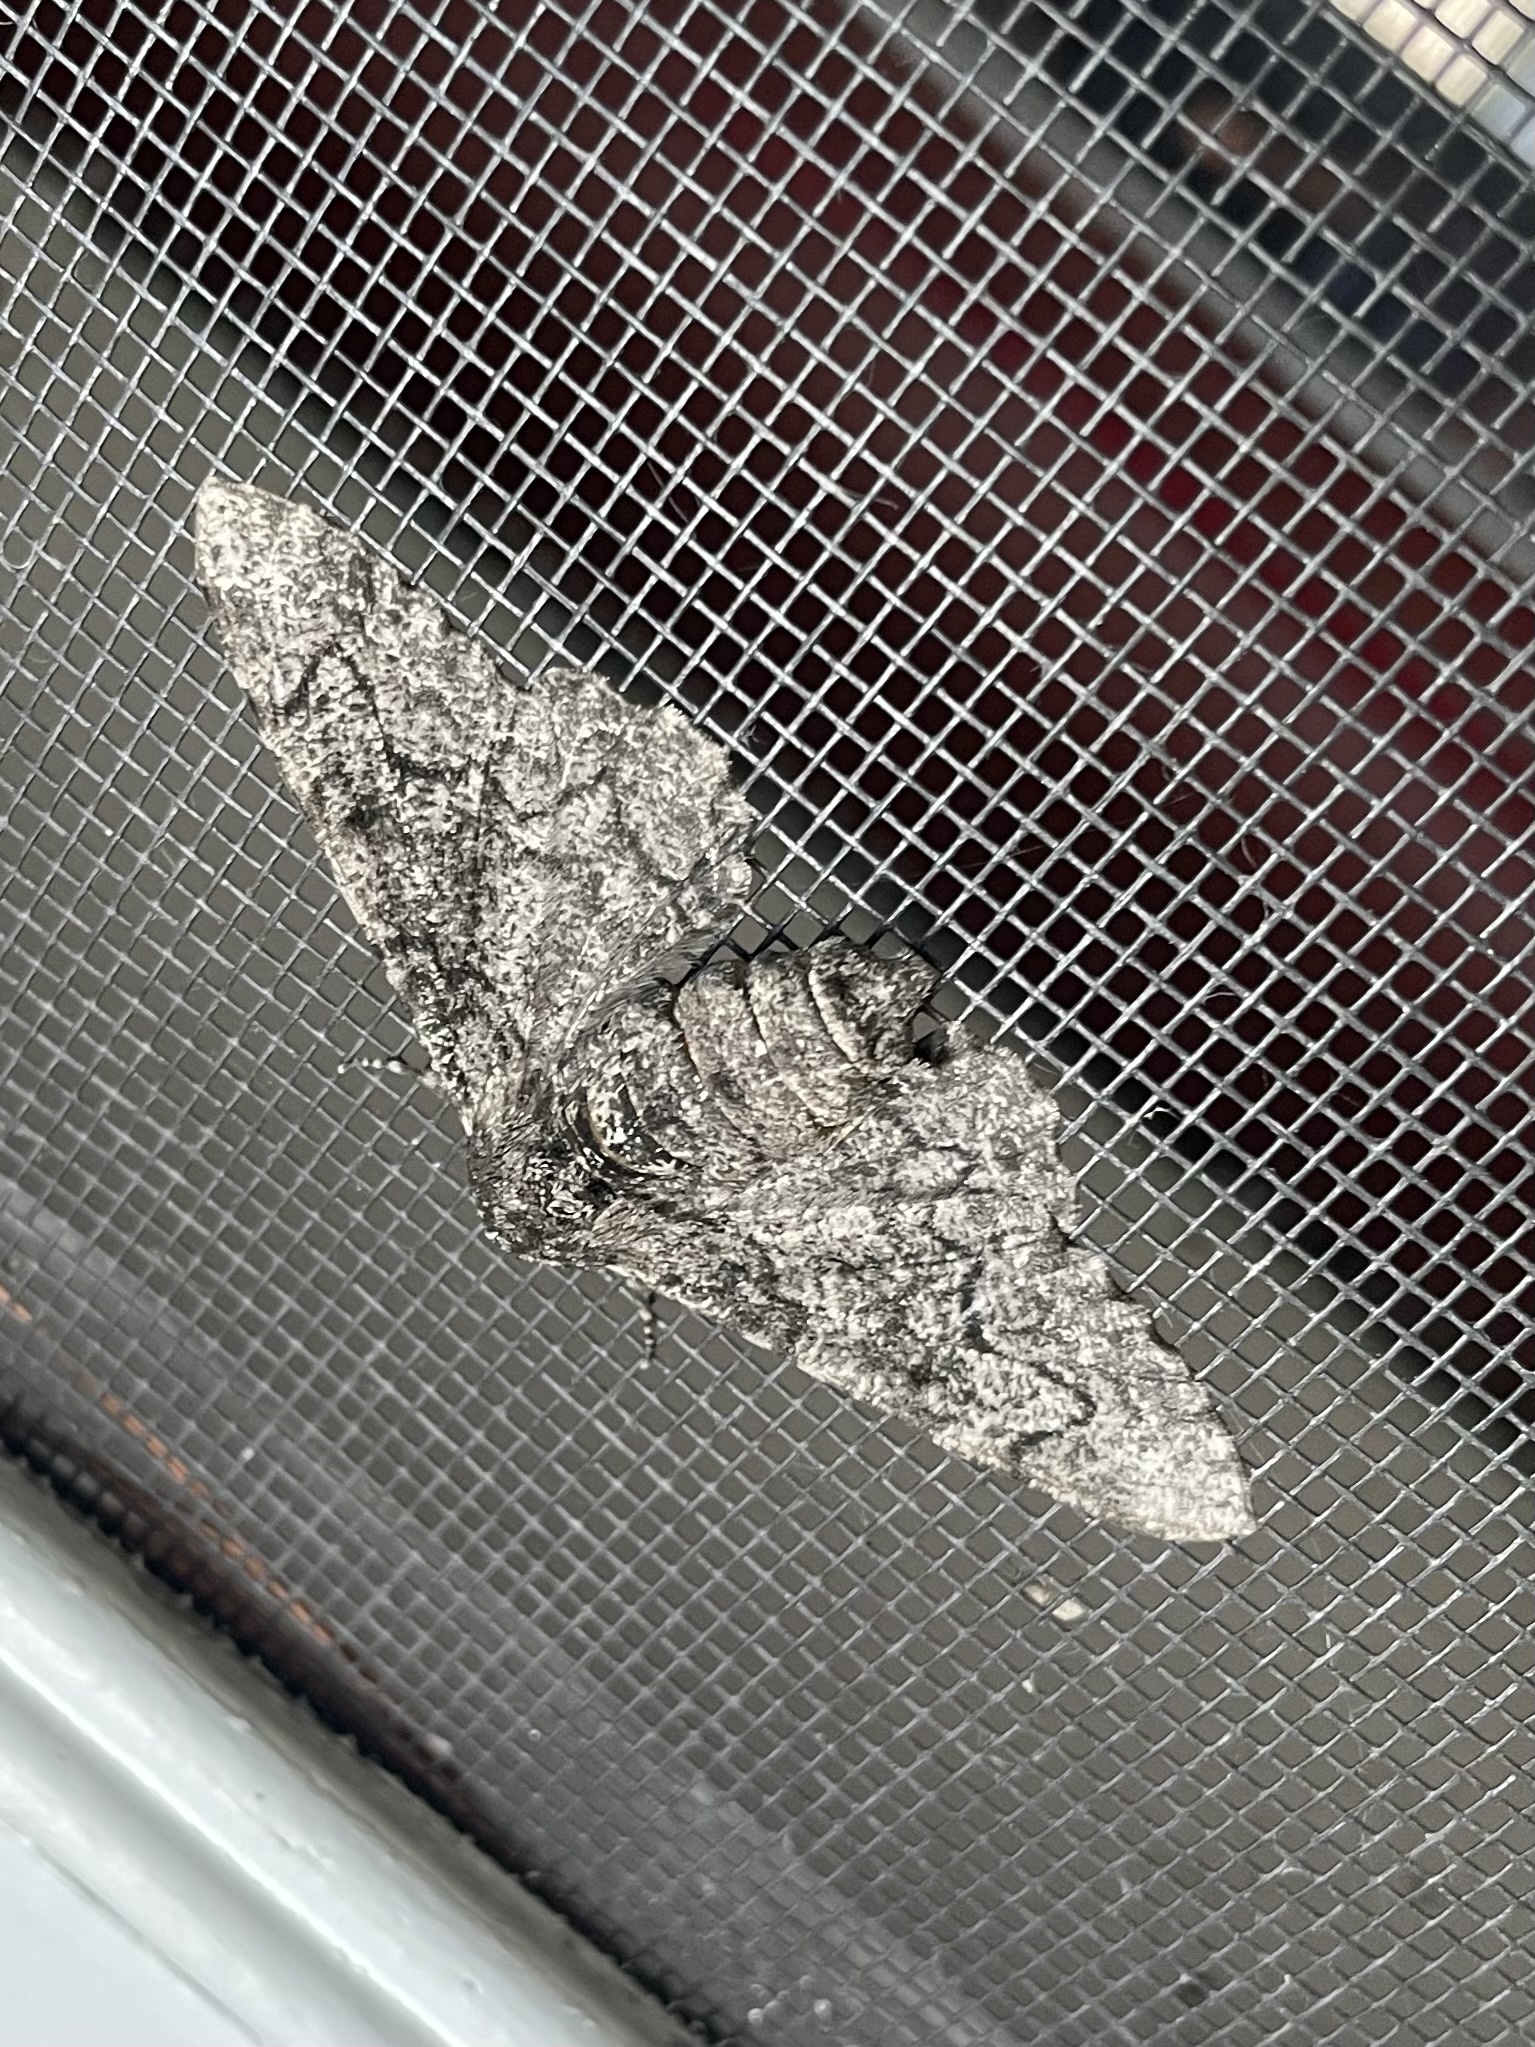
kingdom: Animalia
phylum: Arthropoda
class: Insecta
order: Lepidoptera
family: Geometridae
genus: Biston
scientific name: Biston betularia
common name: Peppered moth
